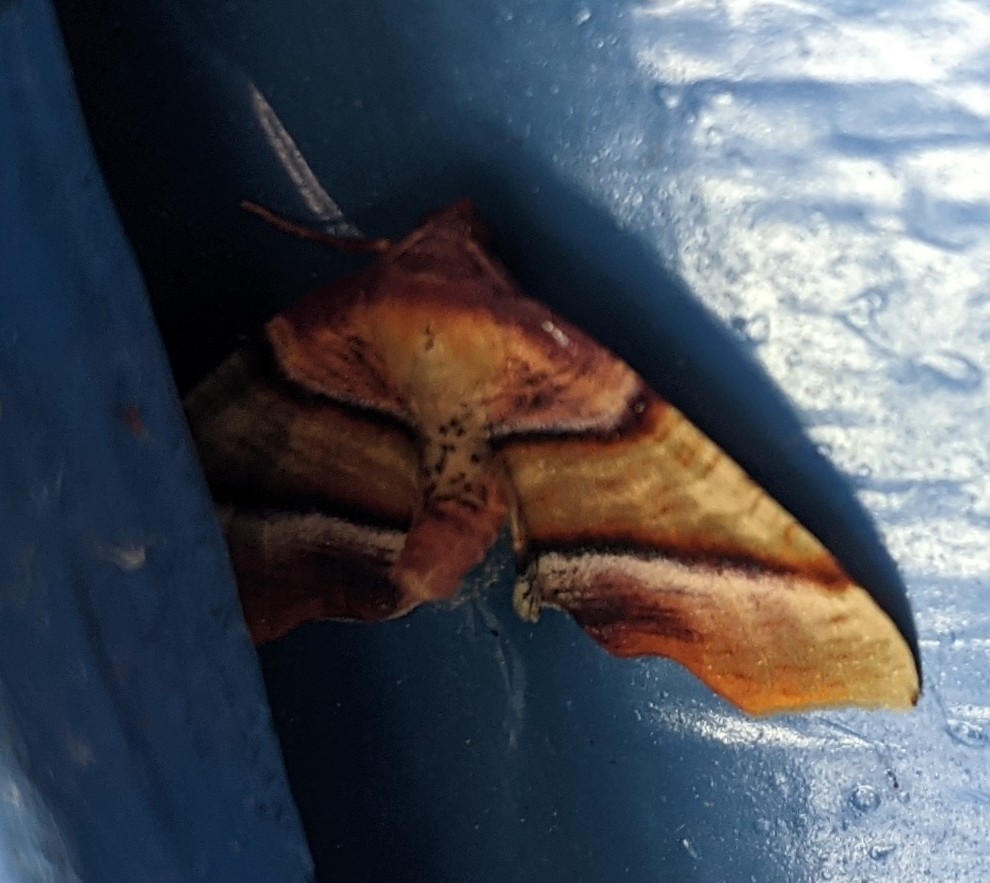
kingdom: Animalia
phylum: Arthropoda
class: Insecta
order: Lepidoptera
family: Geometridae
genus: Plagodis
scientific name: Plagodis phlogosaria
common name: Straight-lined plagodis
